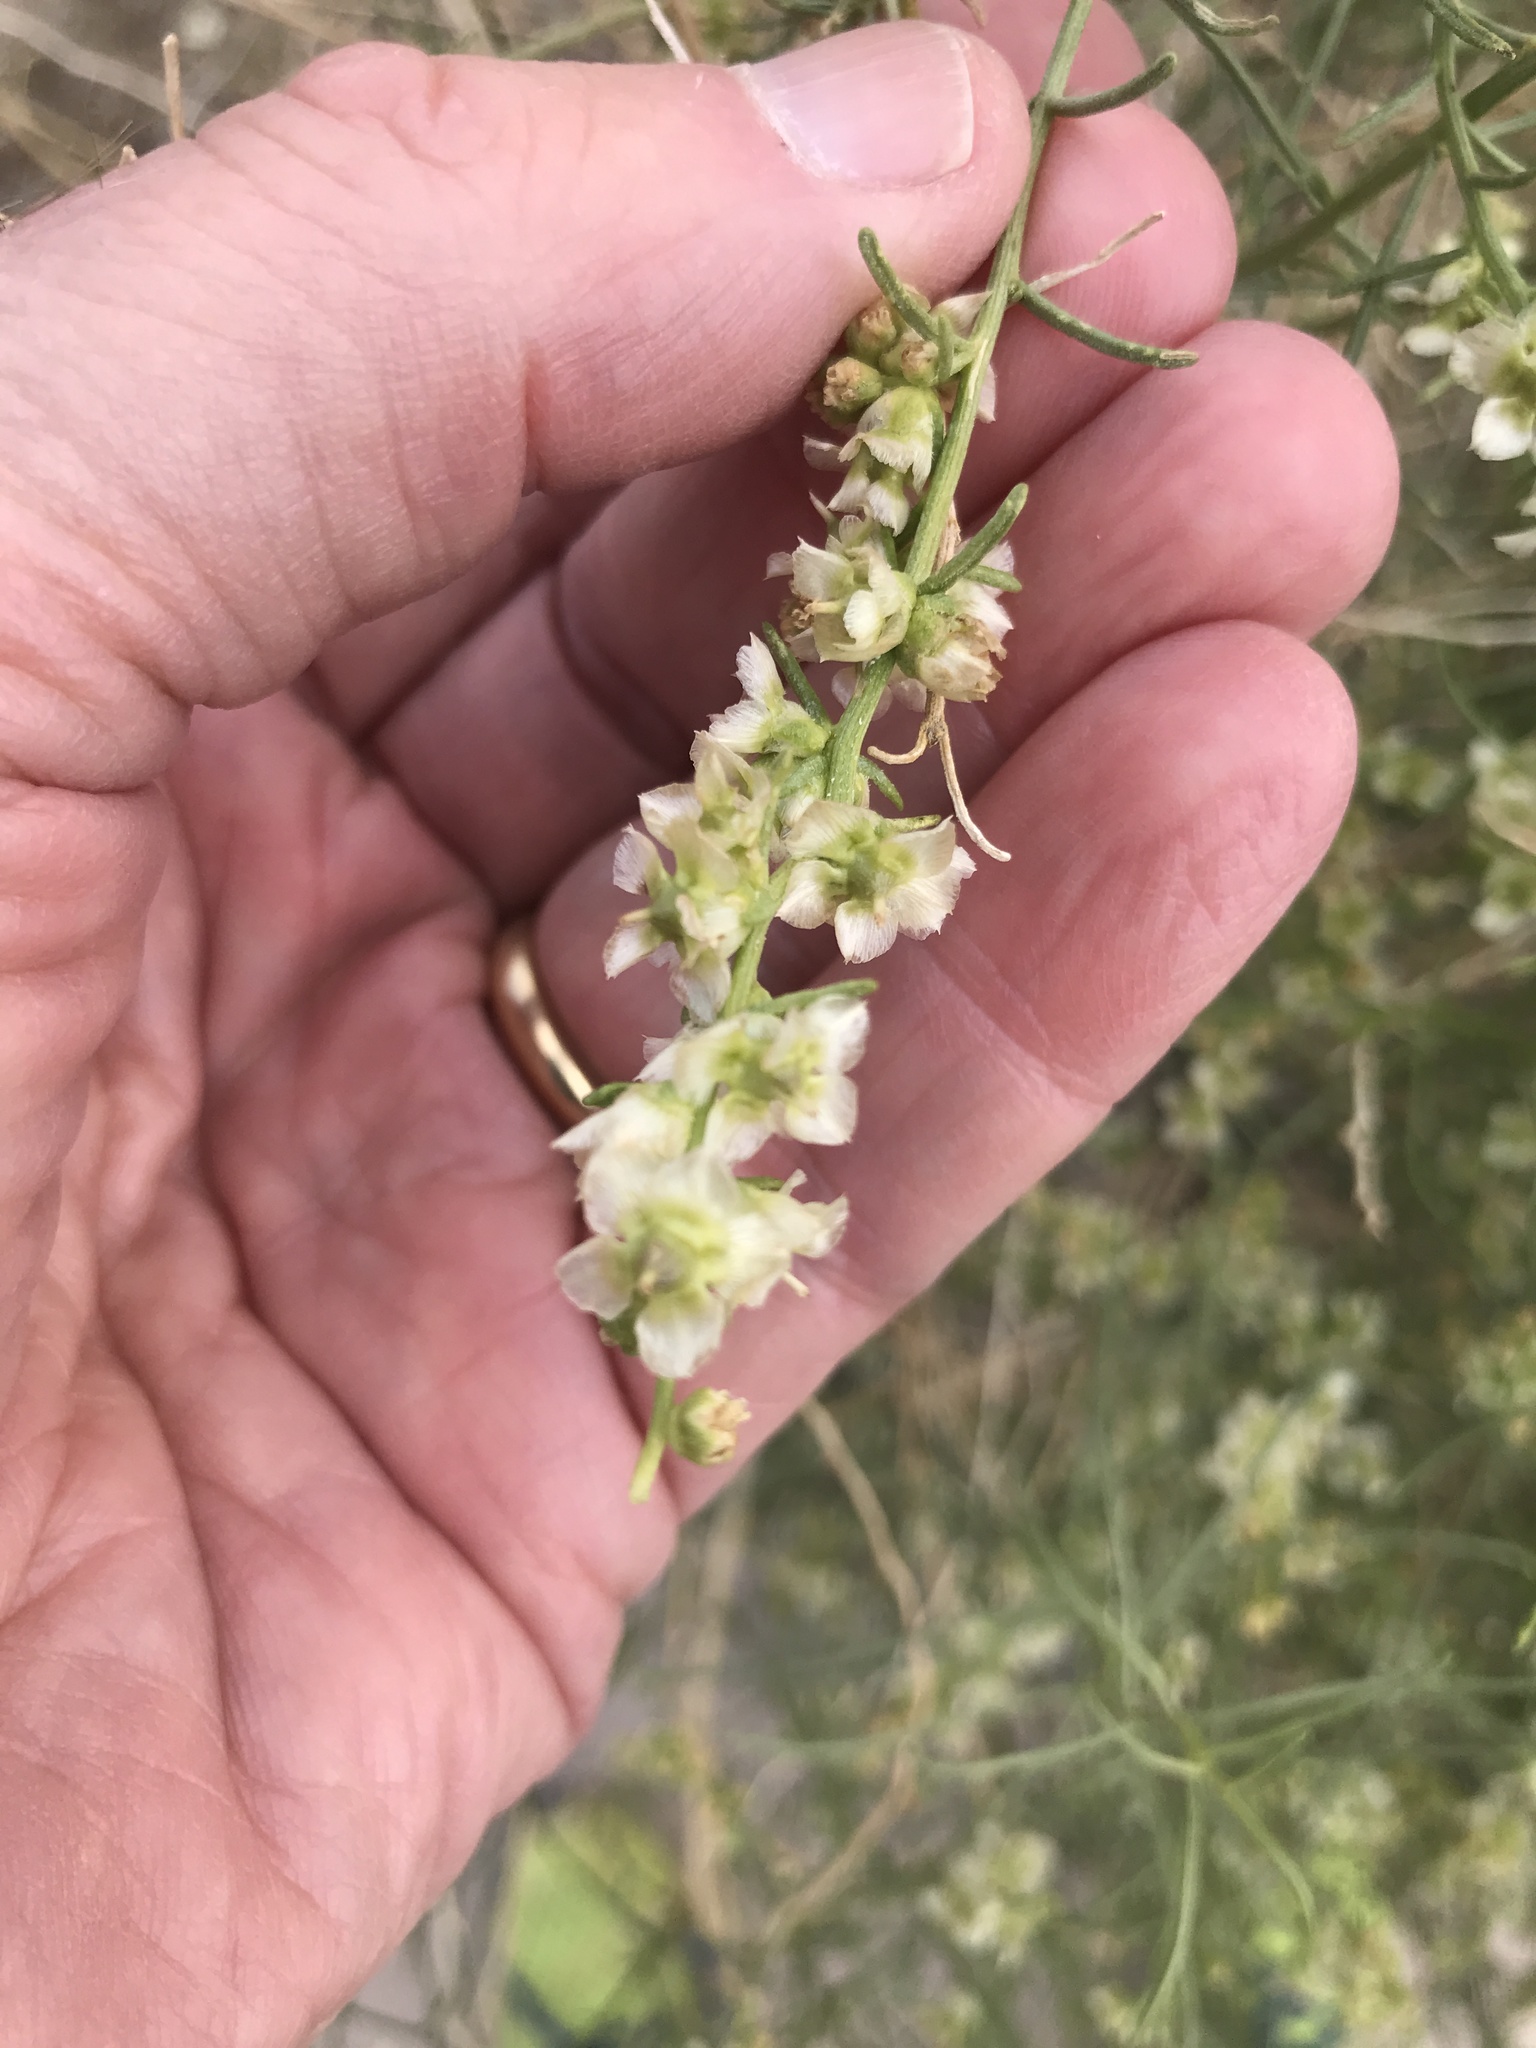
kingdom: Plantae
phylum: Tracheophyta
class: Magnoliopsida
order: Asterales
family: Asteraceae
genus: Ambrosia
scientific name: Ambrosia salsola
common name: Burrobrush
